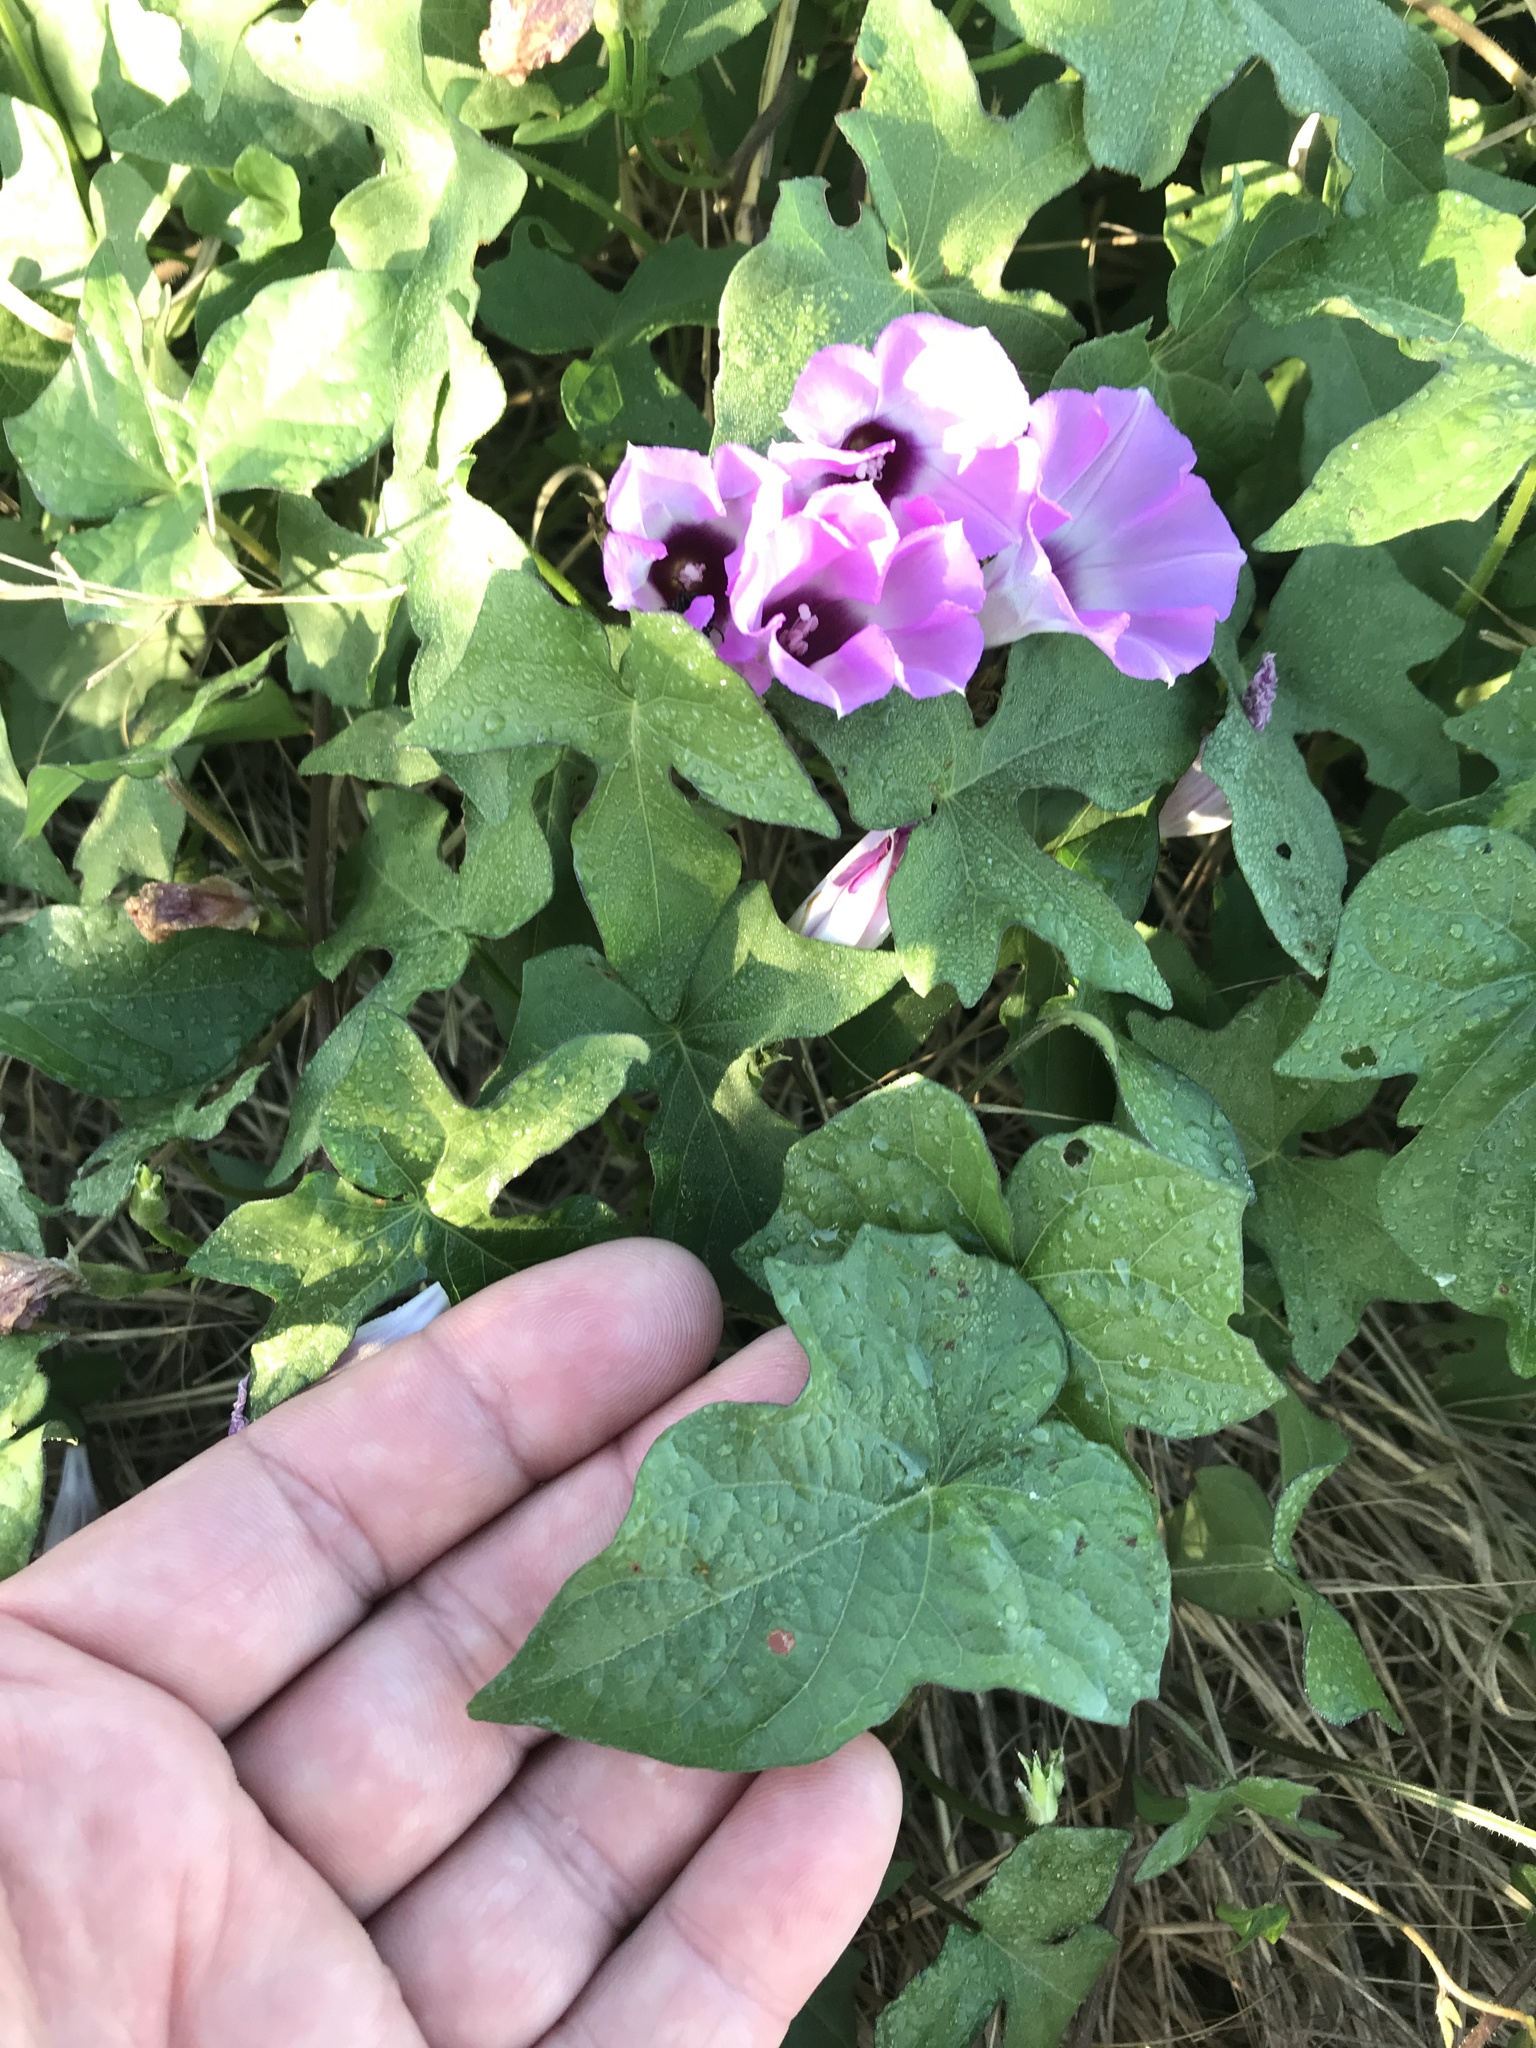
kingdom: Plantae
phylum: Tracheophyta
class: Magnoliopsida
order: Solanales
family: Convolvulaceae
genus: Ipomoea
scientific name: Ipomoea cordatotriloba
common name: Cotton morning glory
